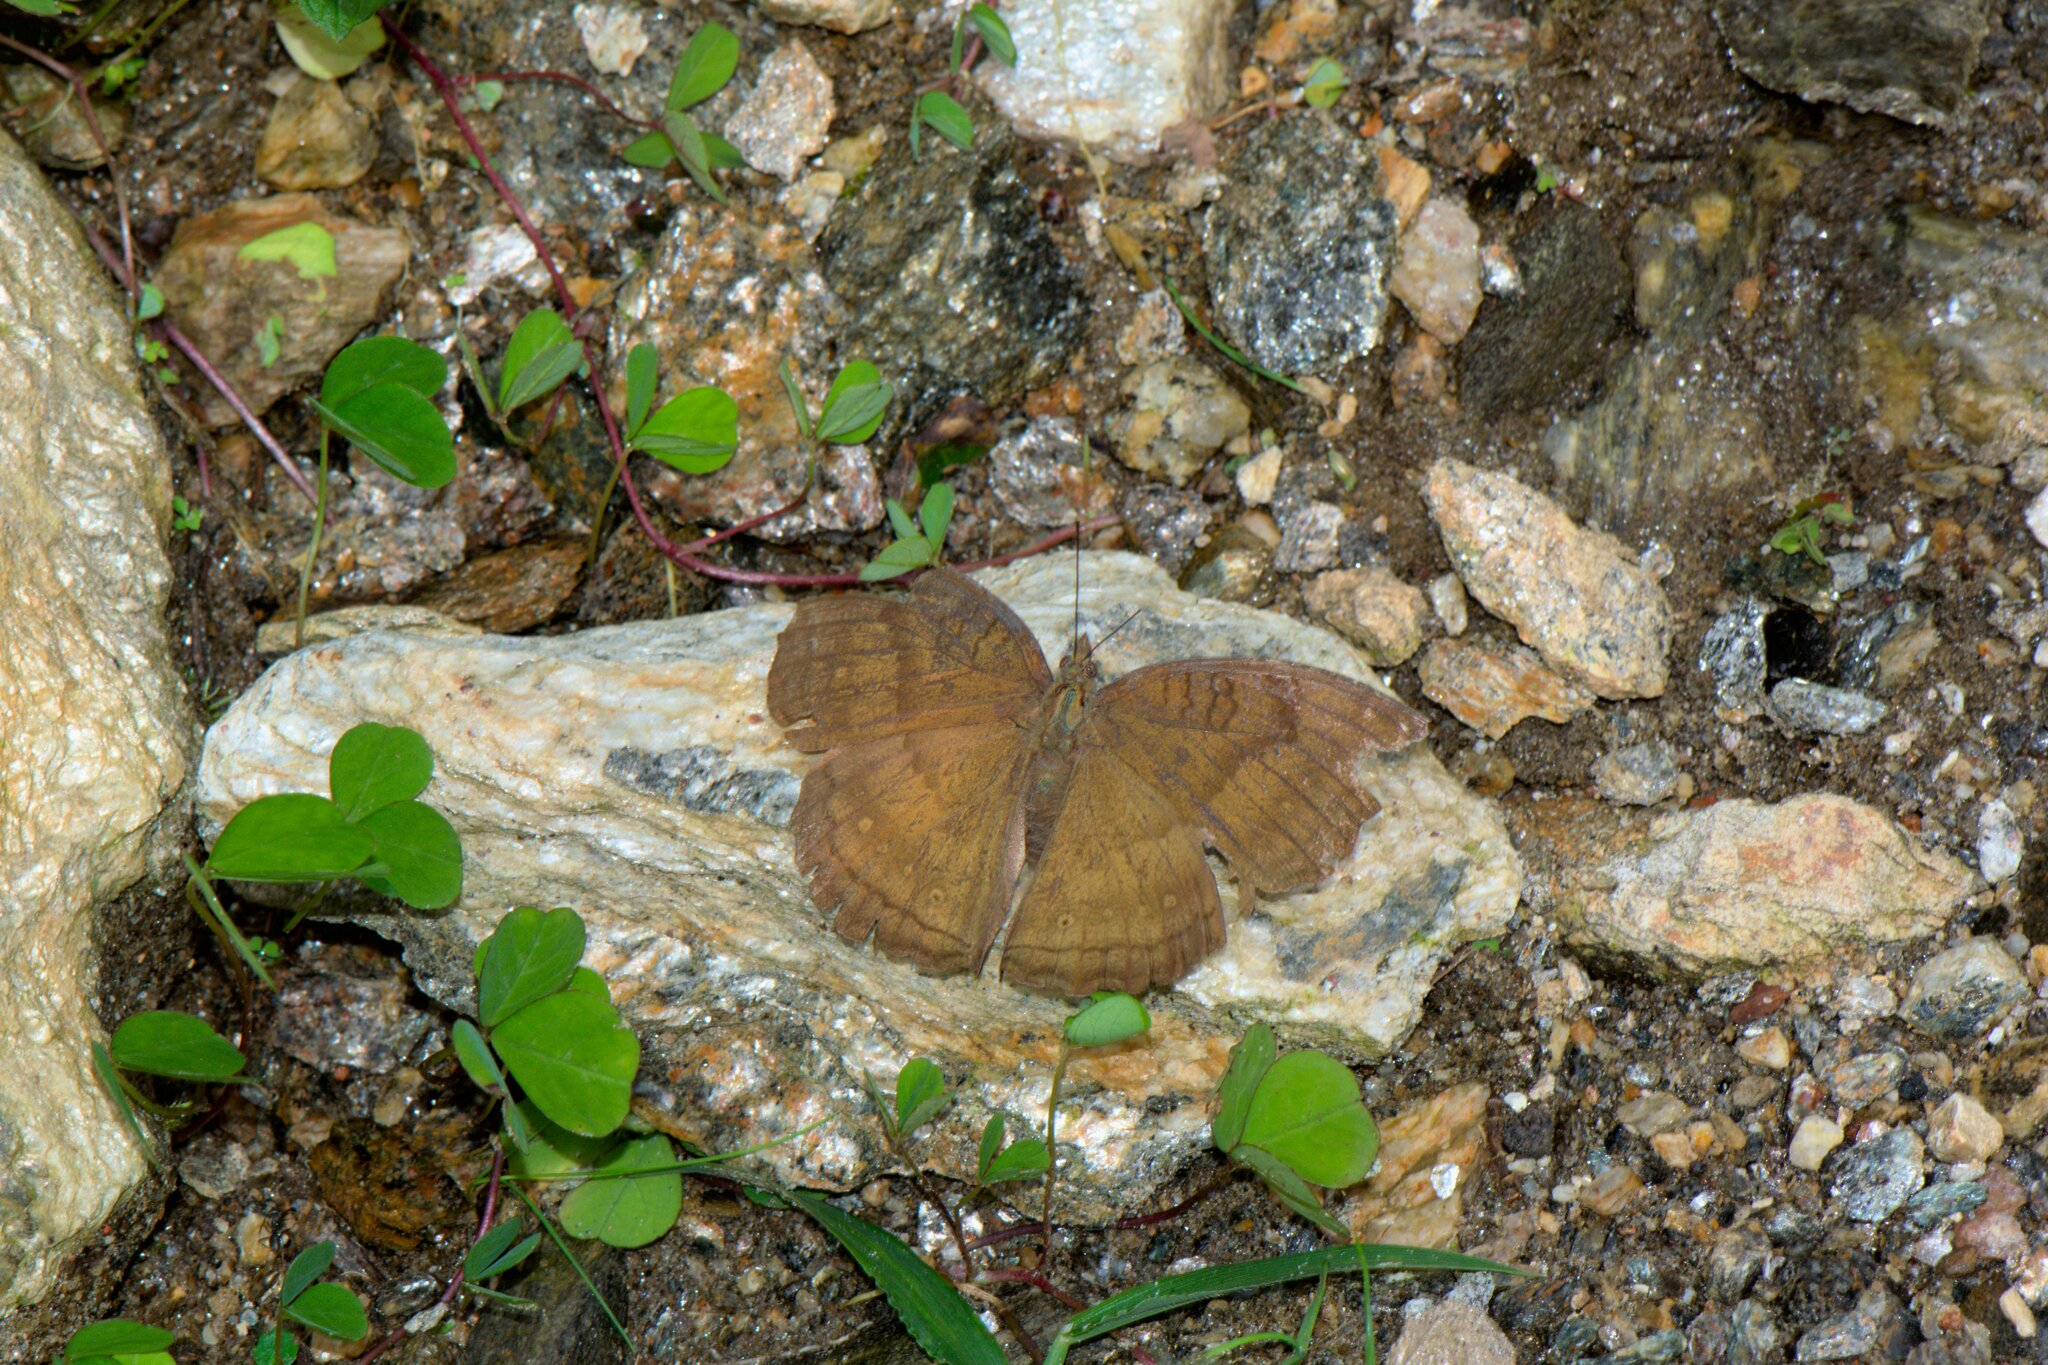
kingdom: Animalia
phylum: Arthropoda
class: Insecta
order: Lepidoptera
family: Nymphalidae
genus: Junonia
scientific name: Junonia iphita
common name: Chocolate pansy
